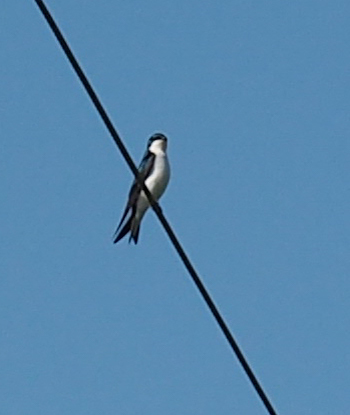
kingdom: Animalia
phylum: Chordata
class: Aves
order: Passeriformes
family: Hirundinidae
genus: Tachycineta
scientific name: Tachycineta bicolor
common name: Tree swallow
